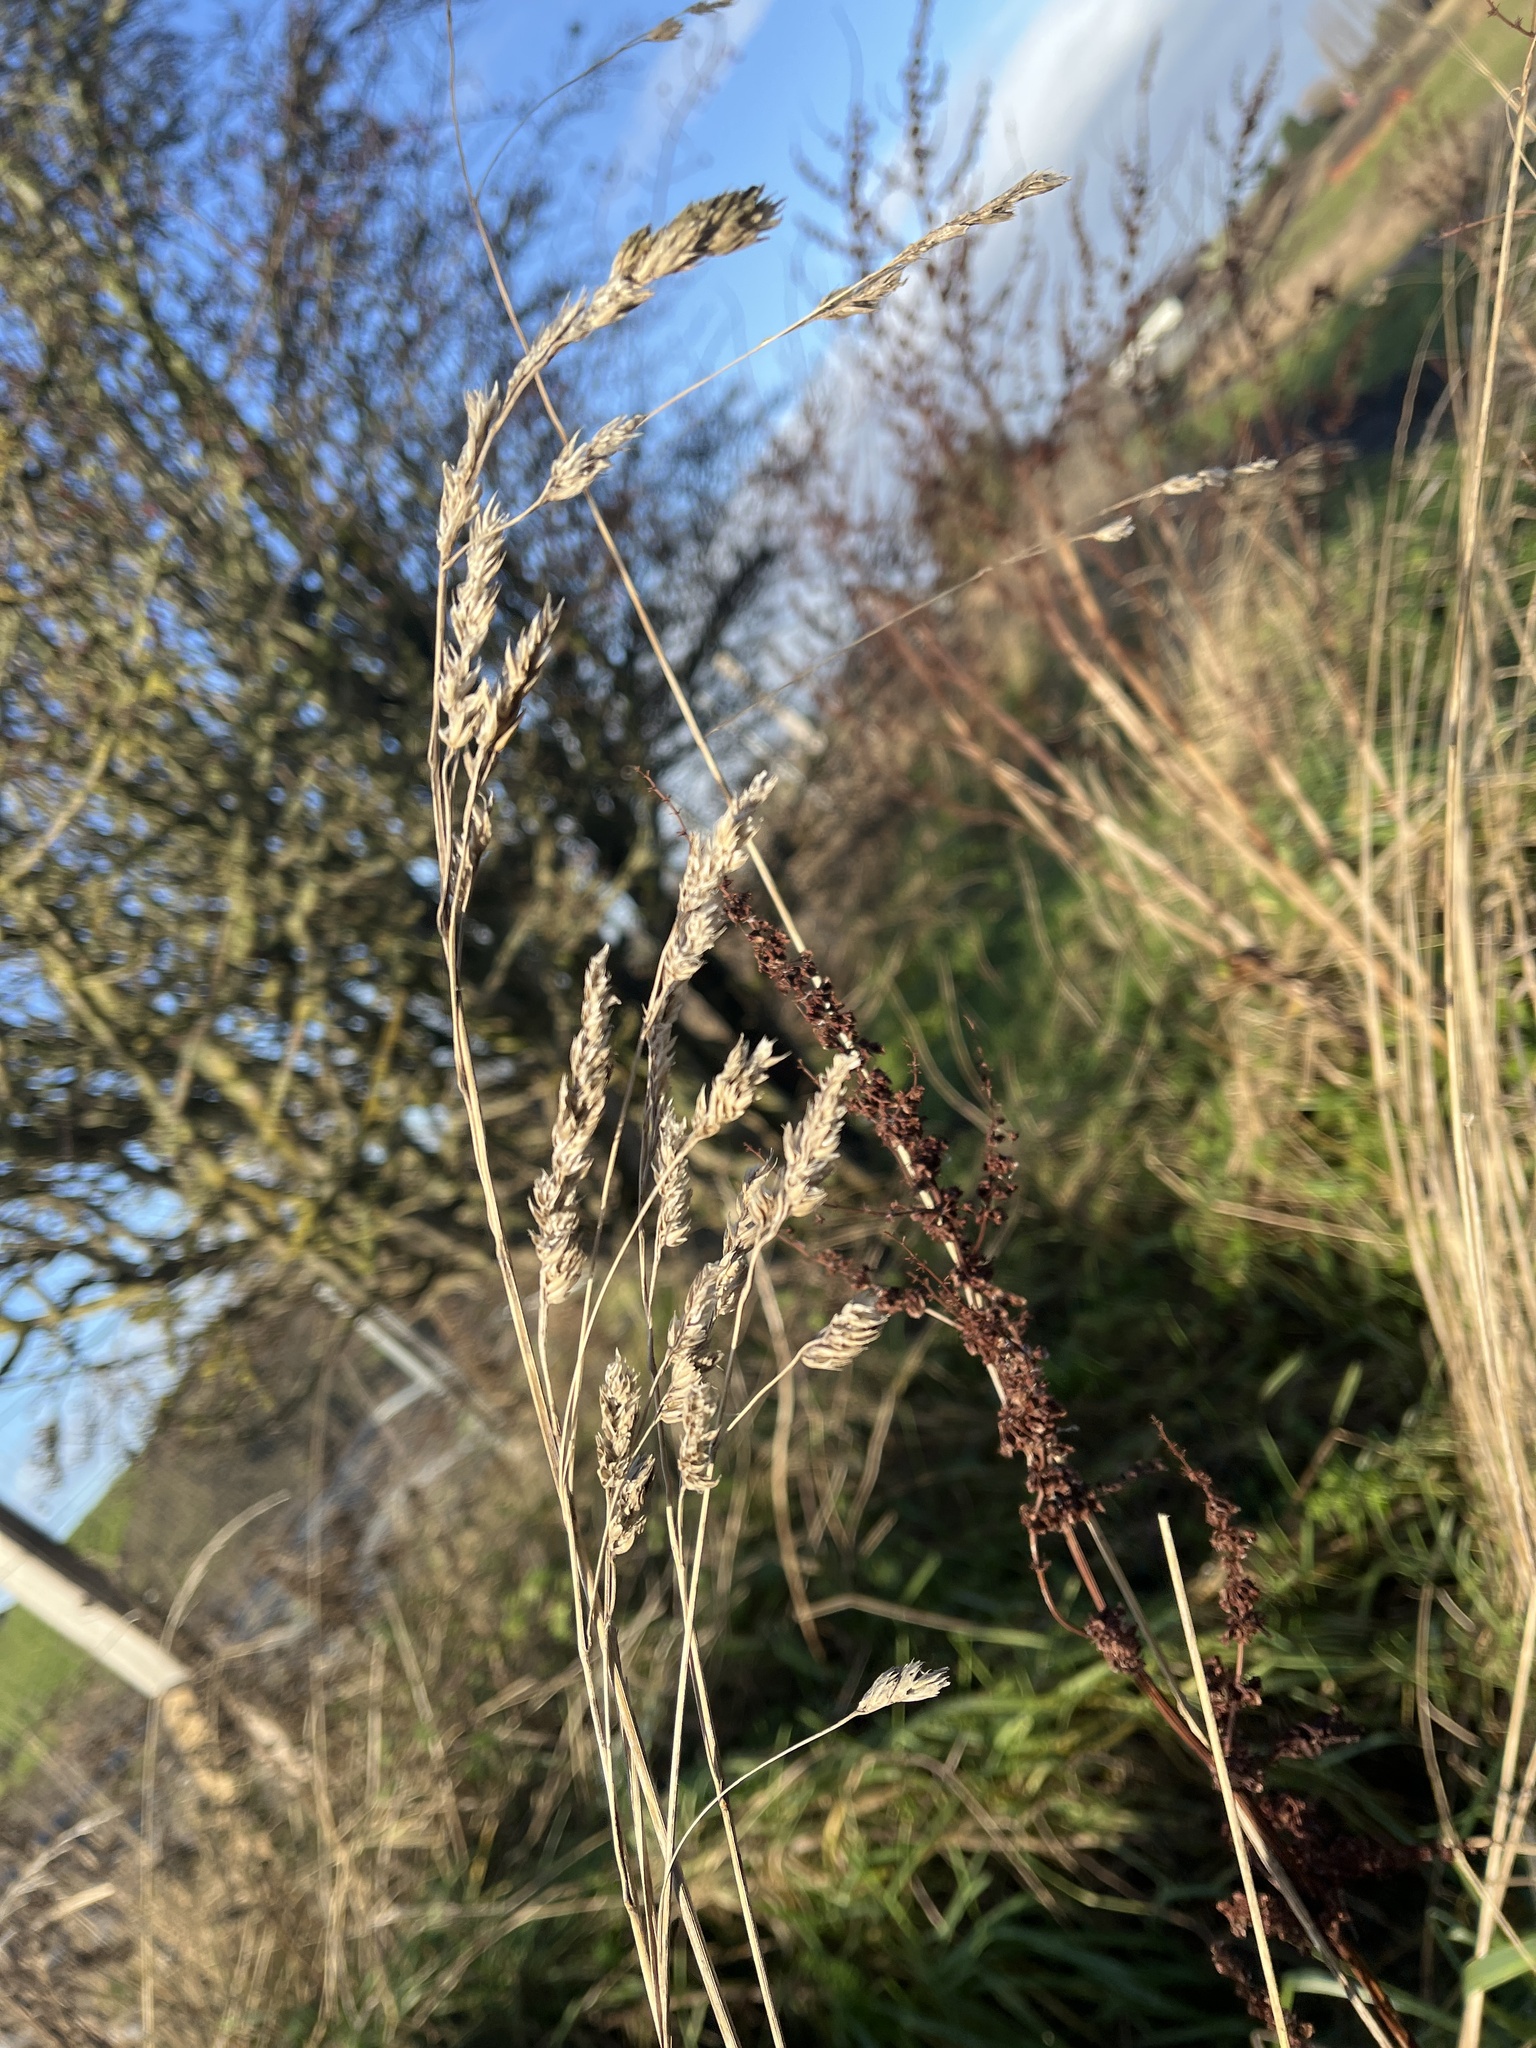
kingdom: Plantae
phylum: Tracheophyta
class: Liliopsida
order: Poales
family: Poaceae
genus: Dactylis
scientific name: Dactylis glomerata
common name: Orchardgrass
